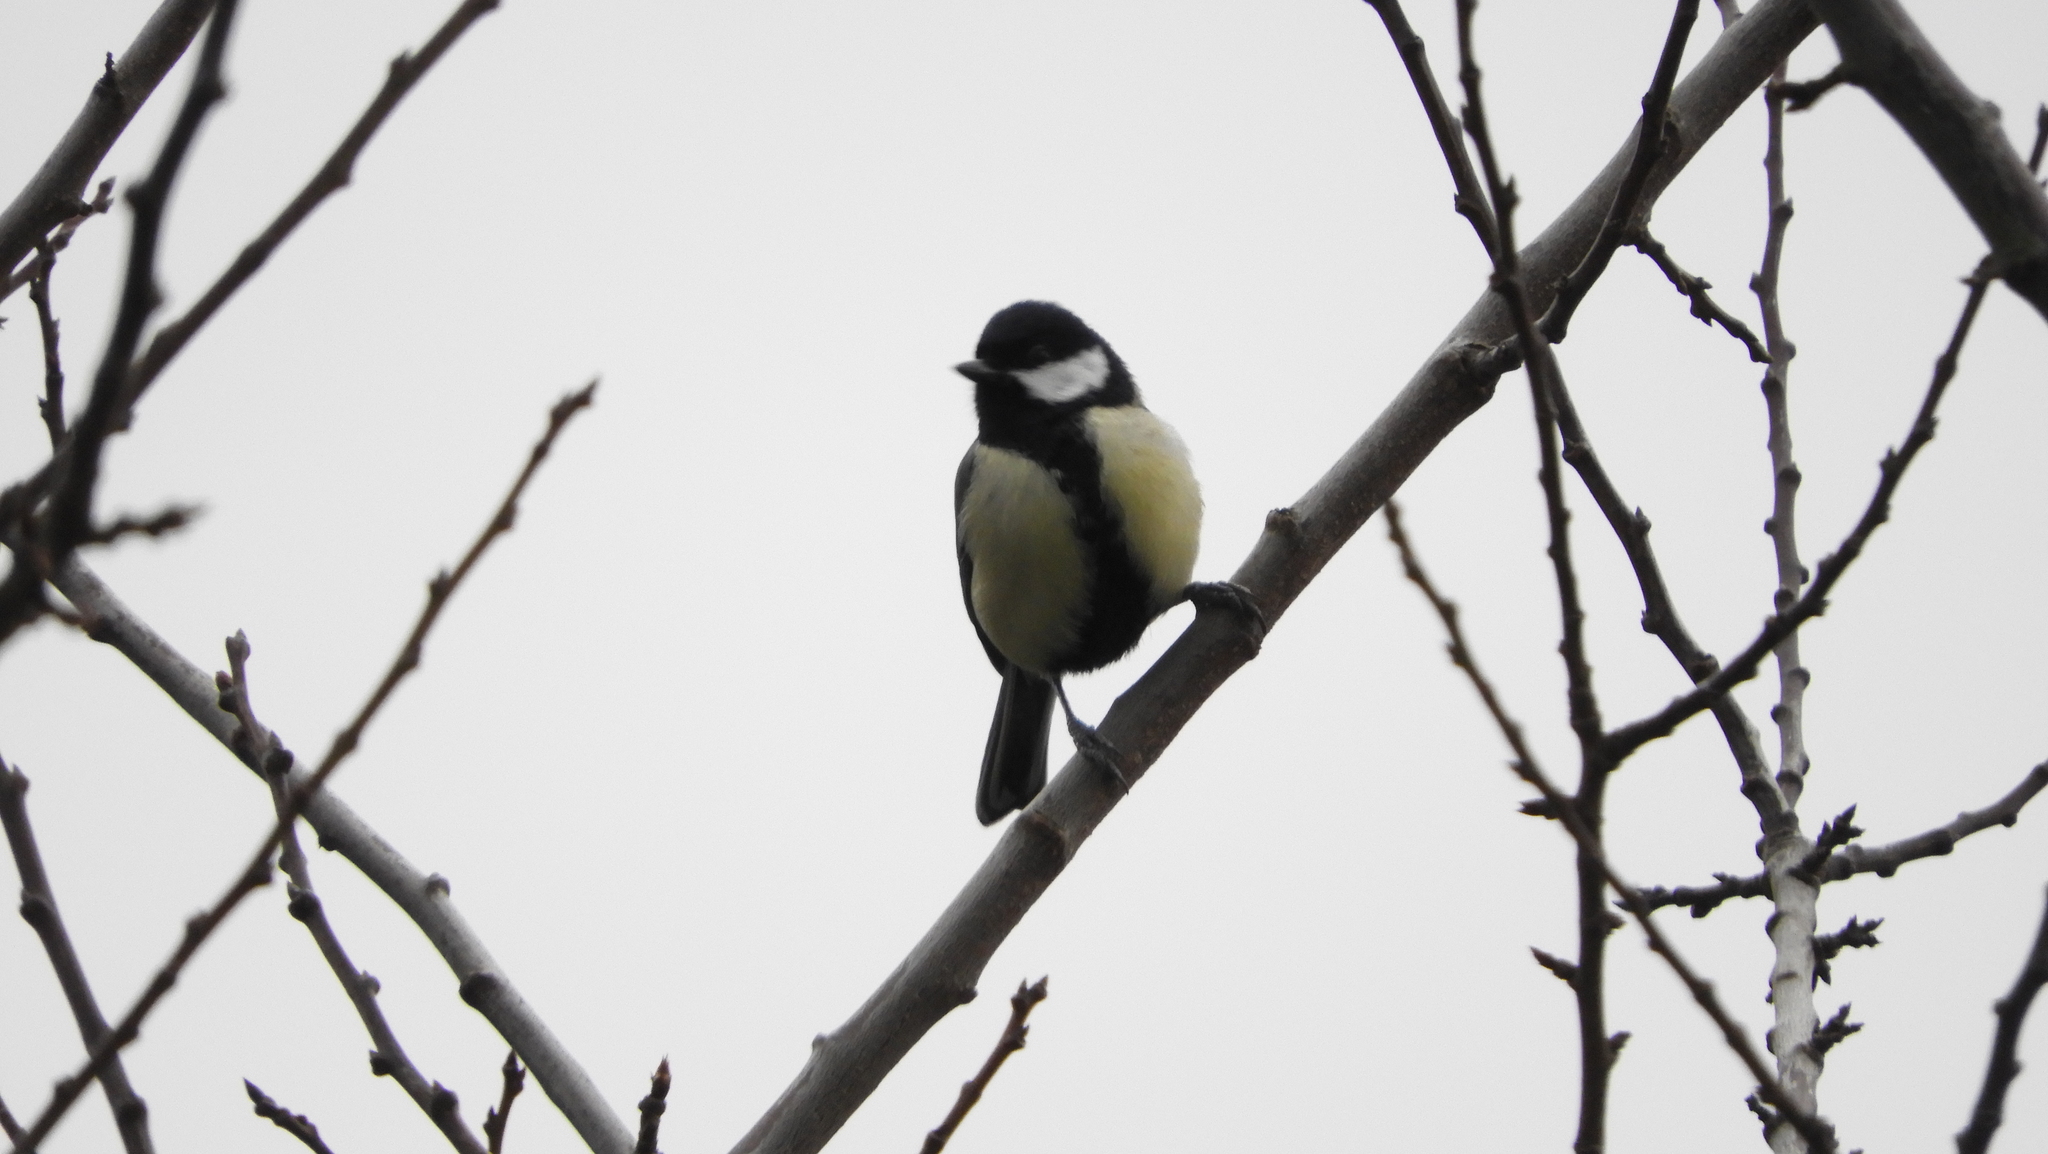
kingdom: Animalia
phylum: Chordata
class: Aves
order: Passeriformes
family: Paridae
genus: Parus
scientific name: Parus major
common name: Great tit
